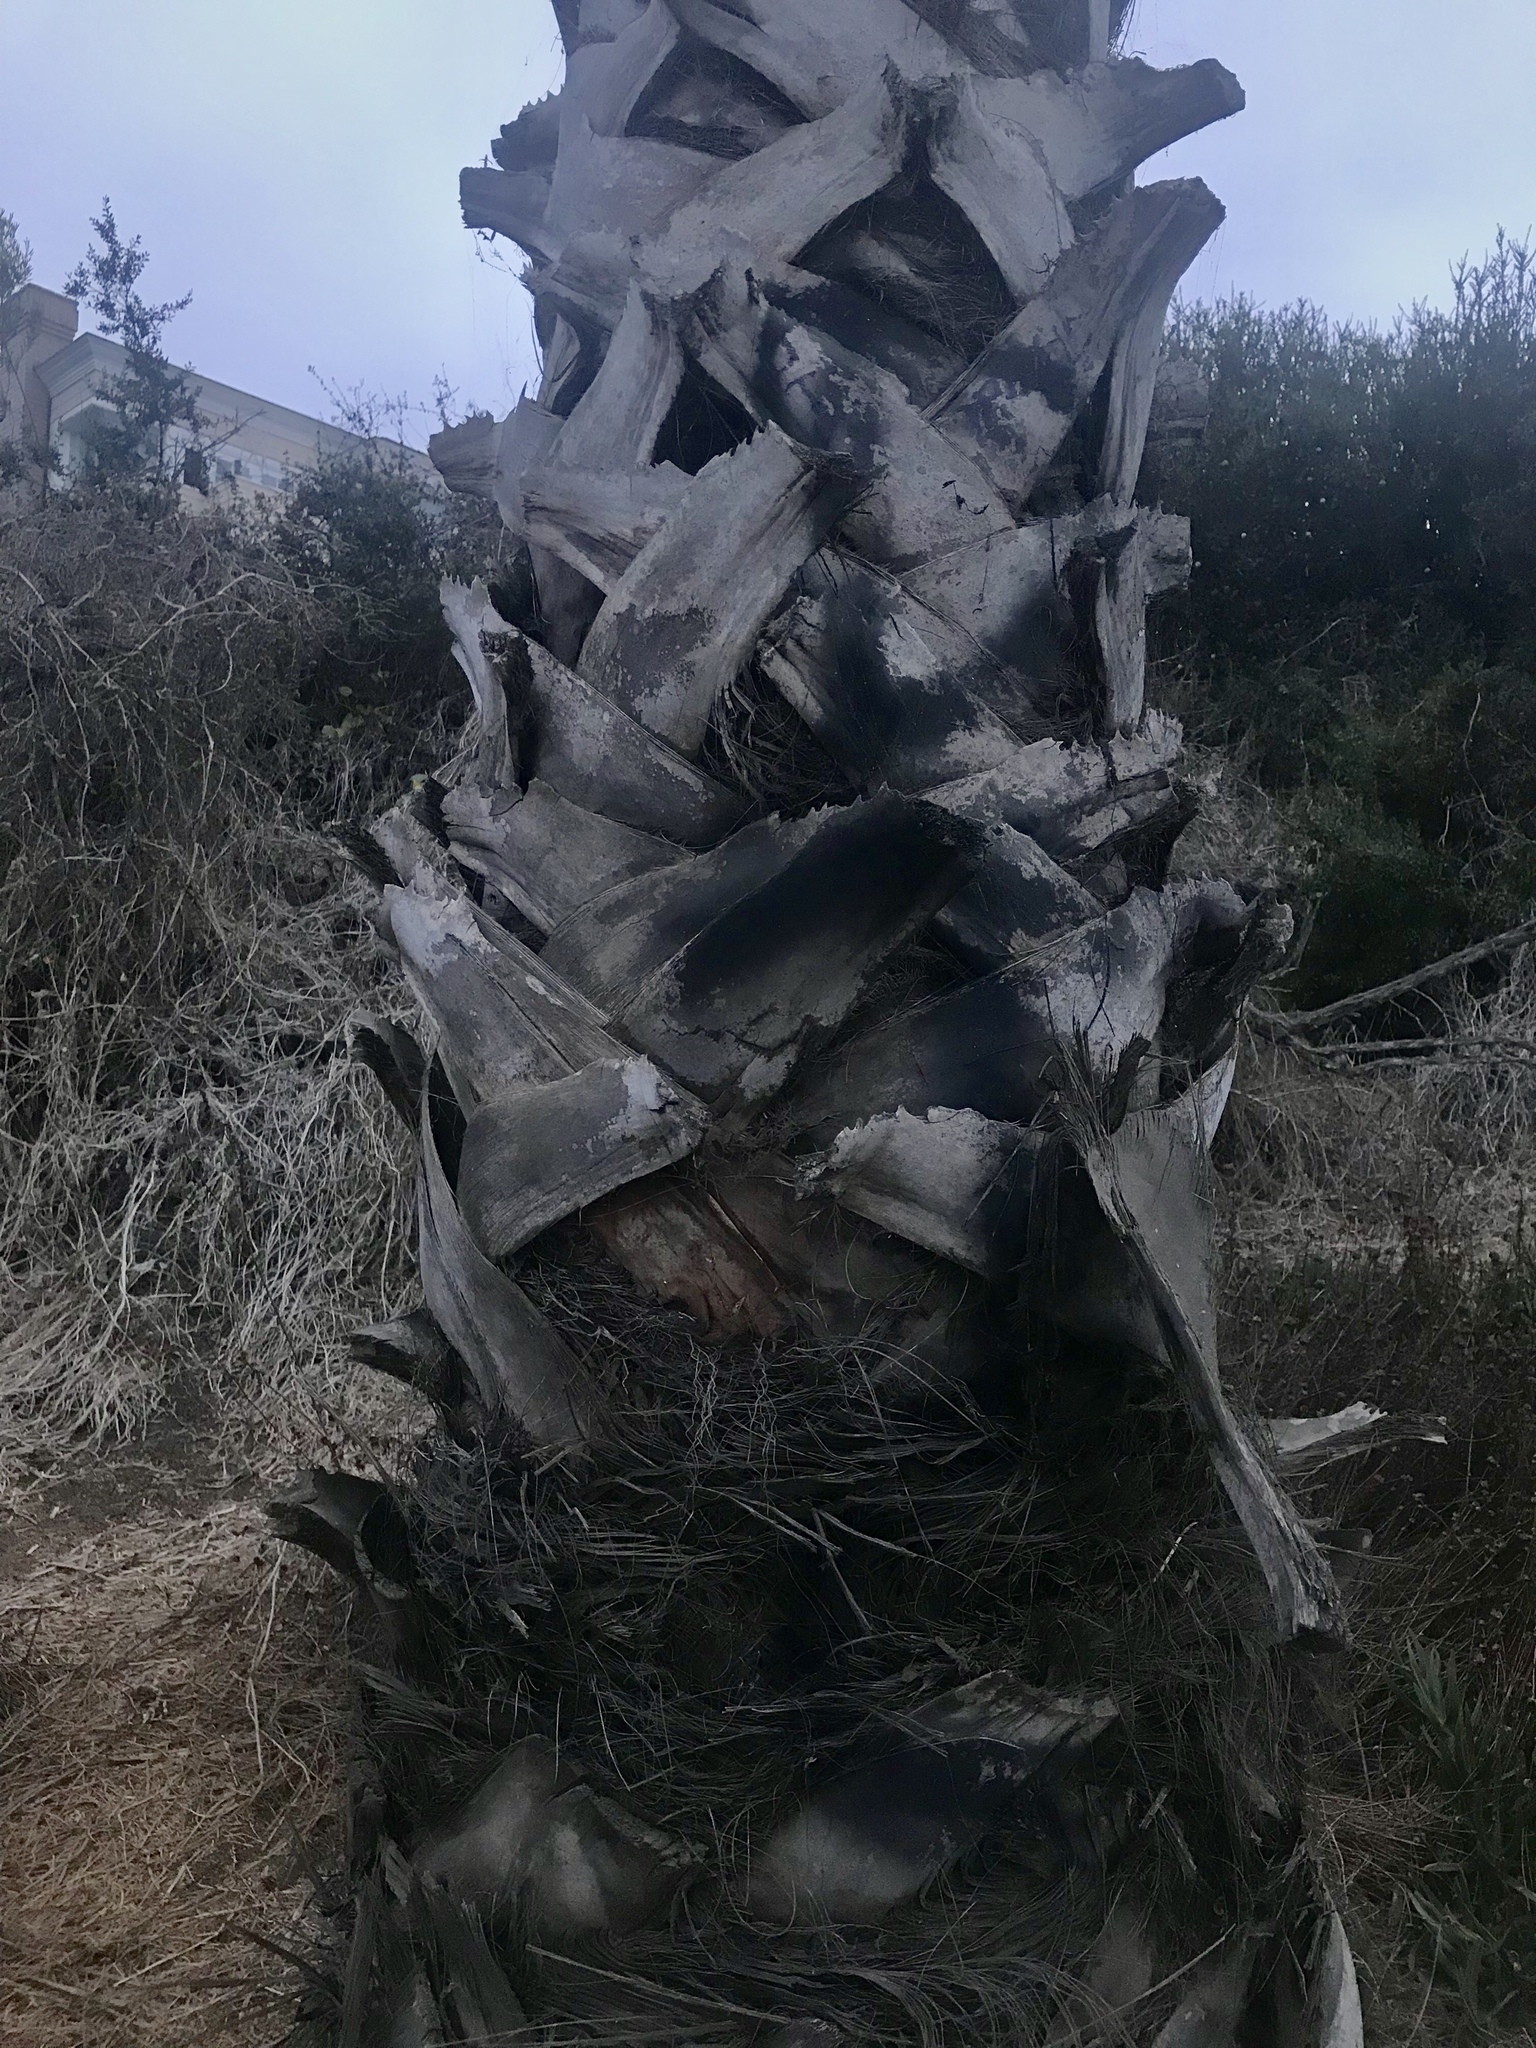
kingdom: Plantae
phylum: Tracheophyta
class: Liliopsida
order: Arecales
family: Arecaceae
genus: Washingtonia
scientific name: Washingtonia robusta
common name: Mexican fan palm
